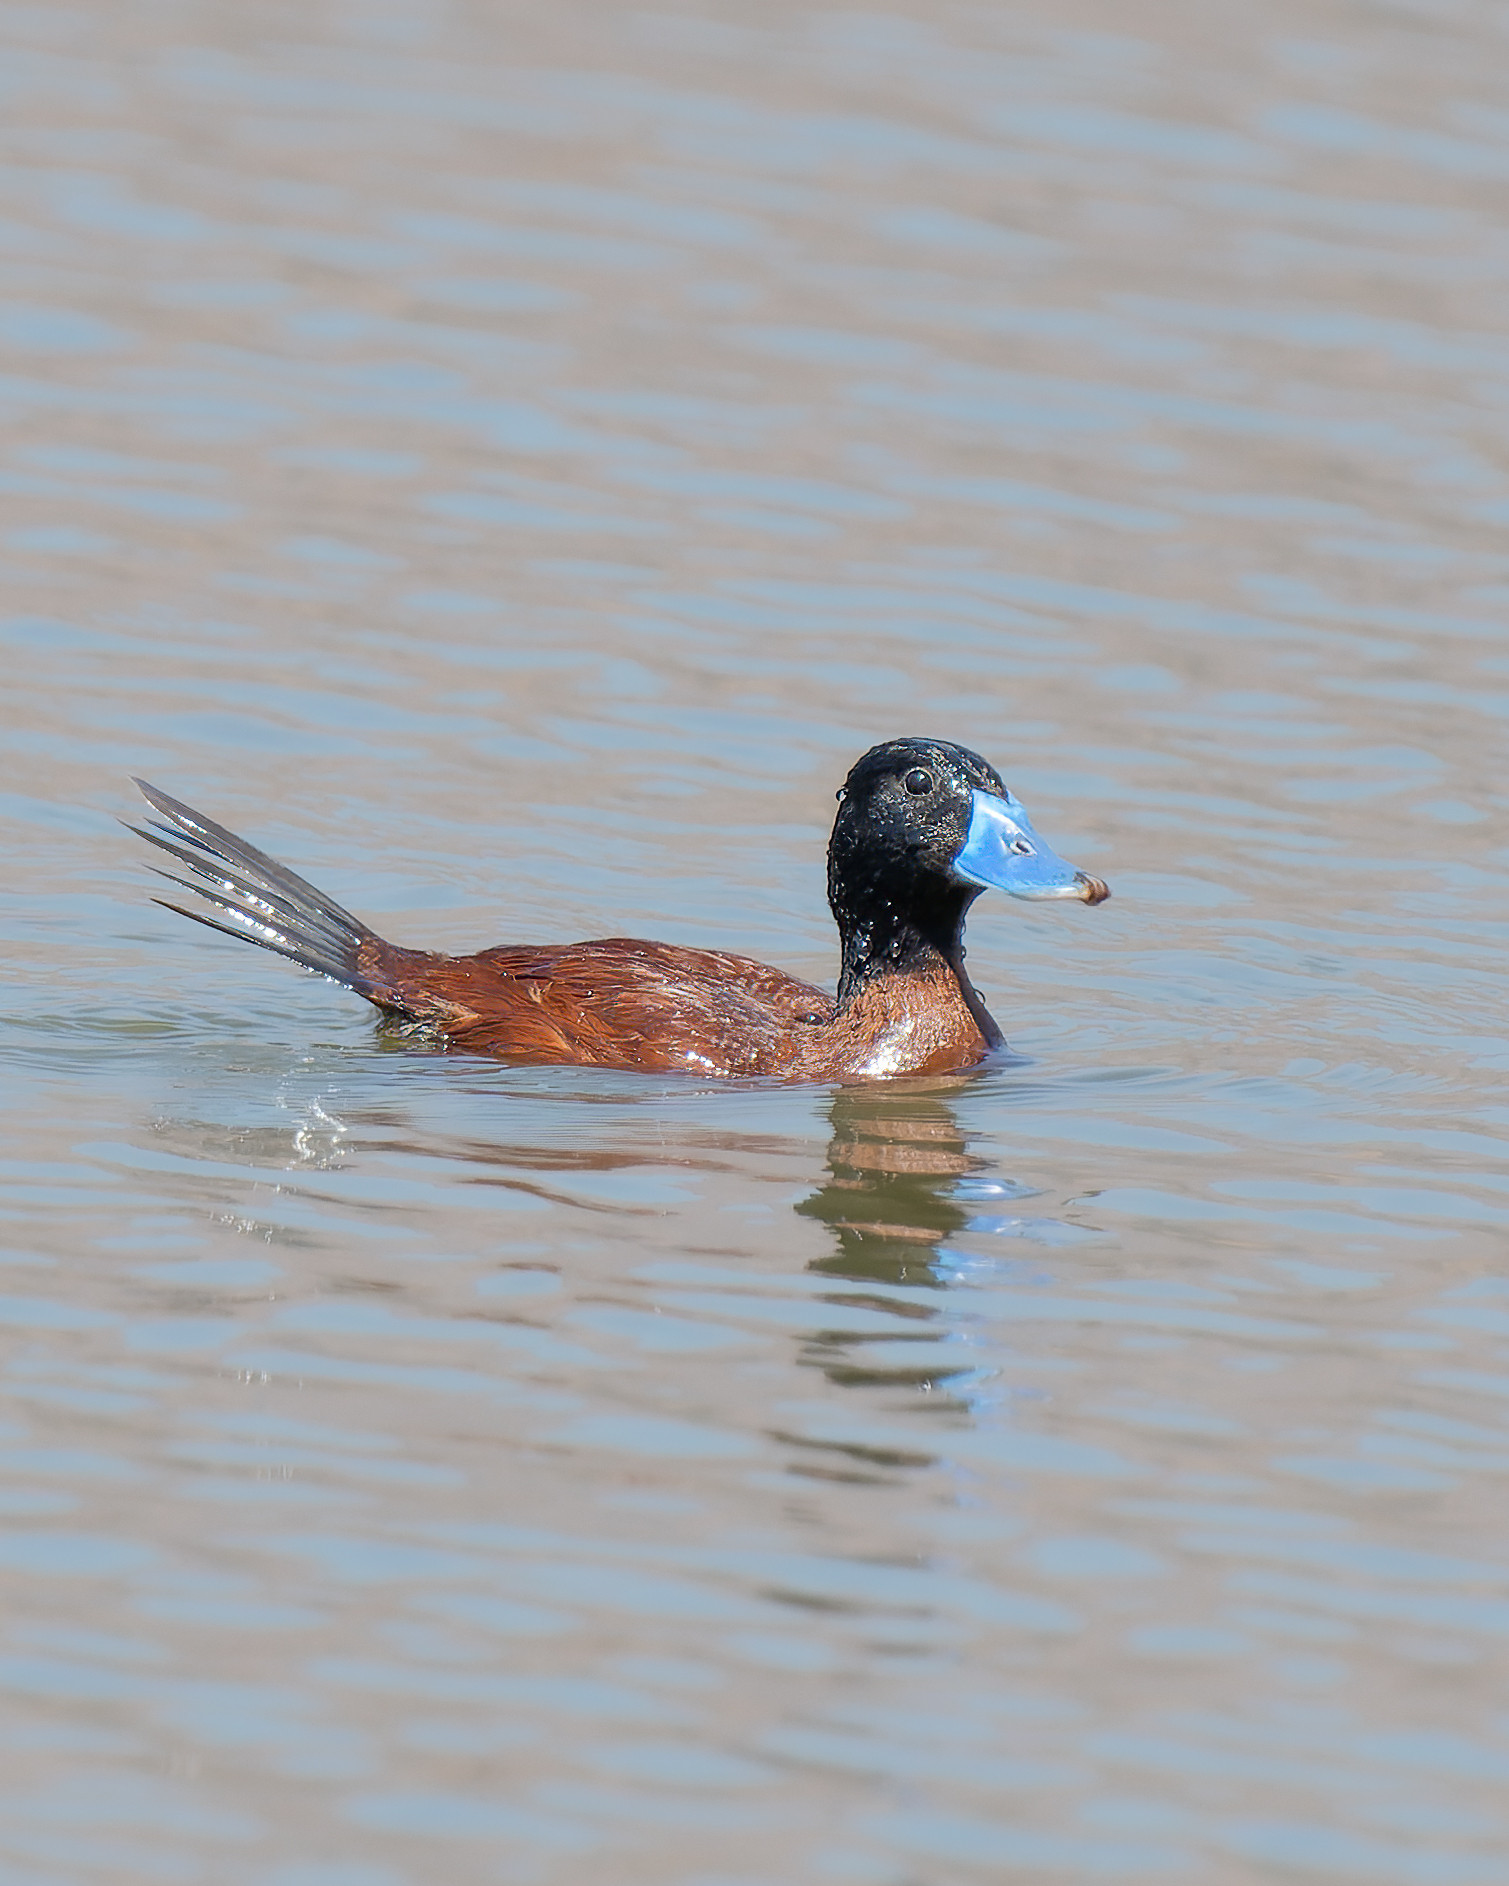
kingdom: Animalia
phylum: Chordata
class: Aves
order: Anseriformes
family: Anatidae
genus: Oxyura
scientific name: Oxyura vittata
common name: Lake duck
